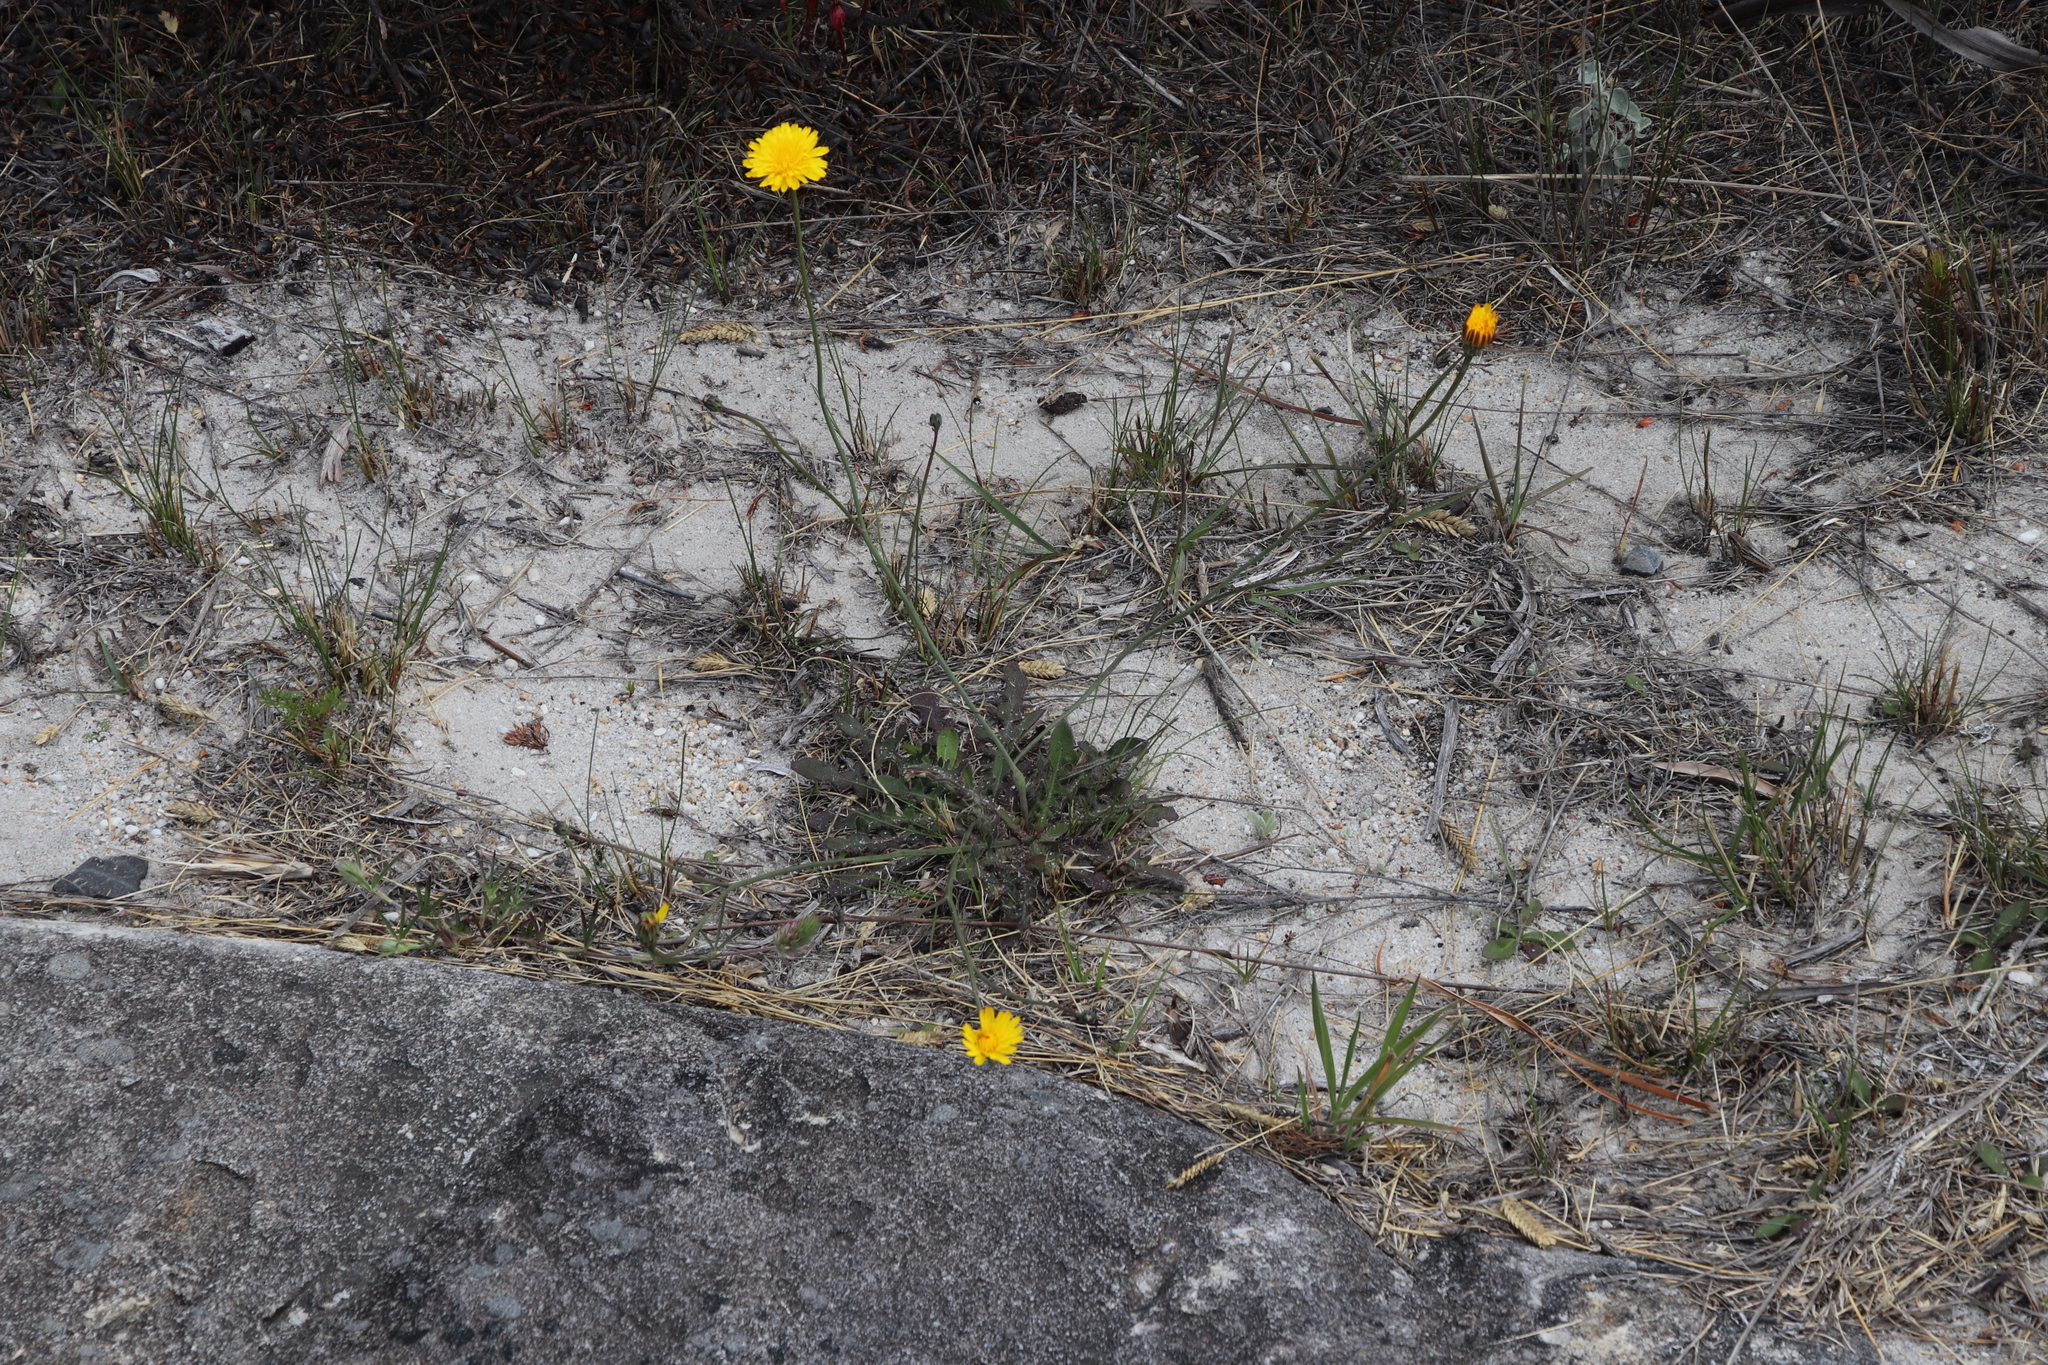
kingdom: Plantae
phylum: Tracheophyta
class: Magnoliopsida
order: Asterales
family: Asteraceae
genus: Hypochaeris
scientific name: Hypochaeris radicata
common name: Flatweed
